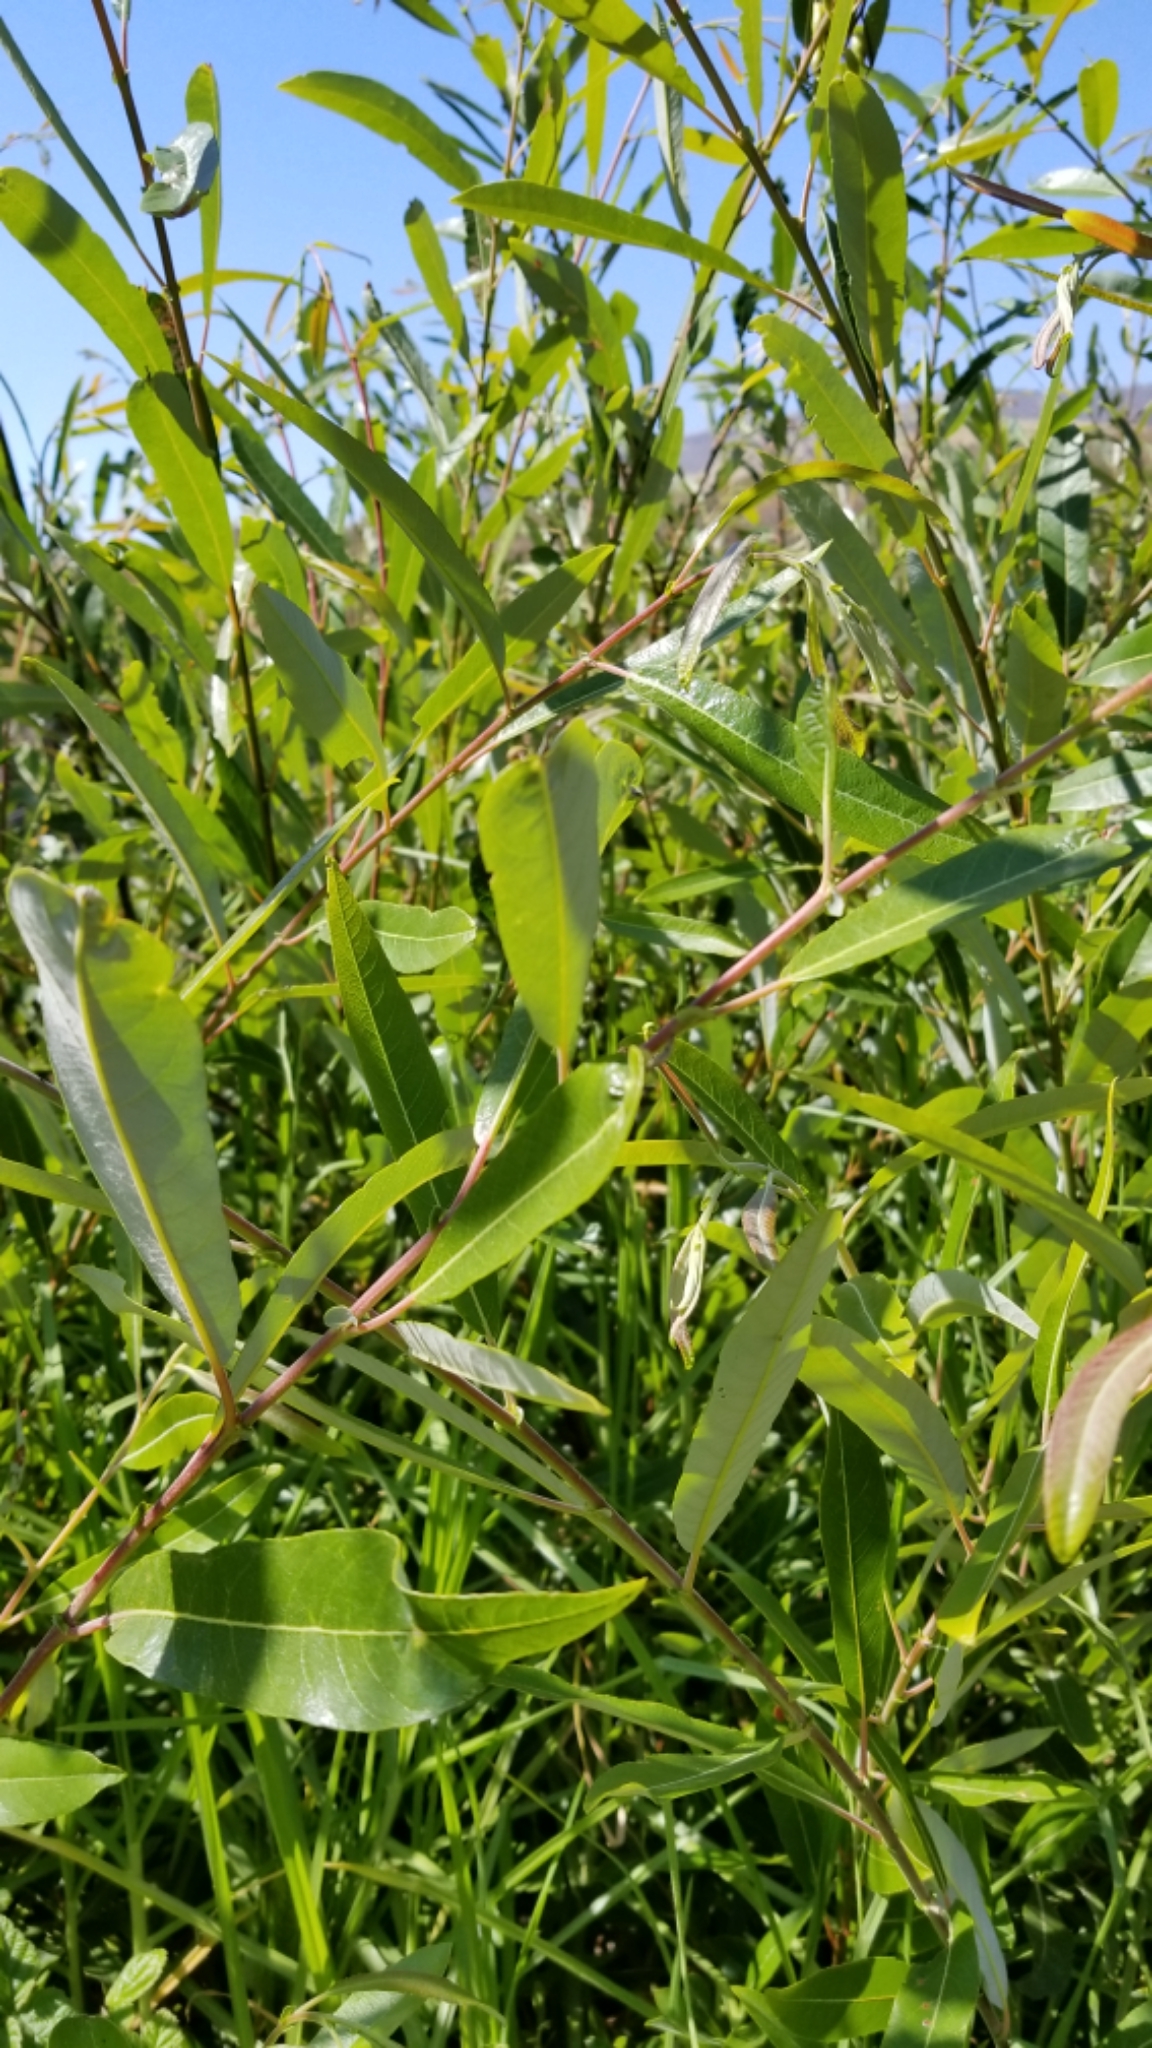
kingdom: Plantae
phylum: Tracheophyta
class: Magnoliopsida
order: Malpighiales
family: Salicaceae
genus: Salix
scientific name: Salix lasiolepis
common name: Arroyo willow
